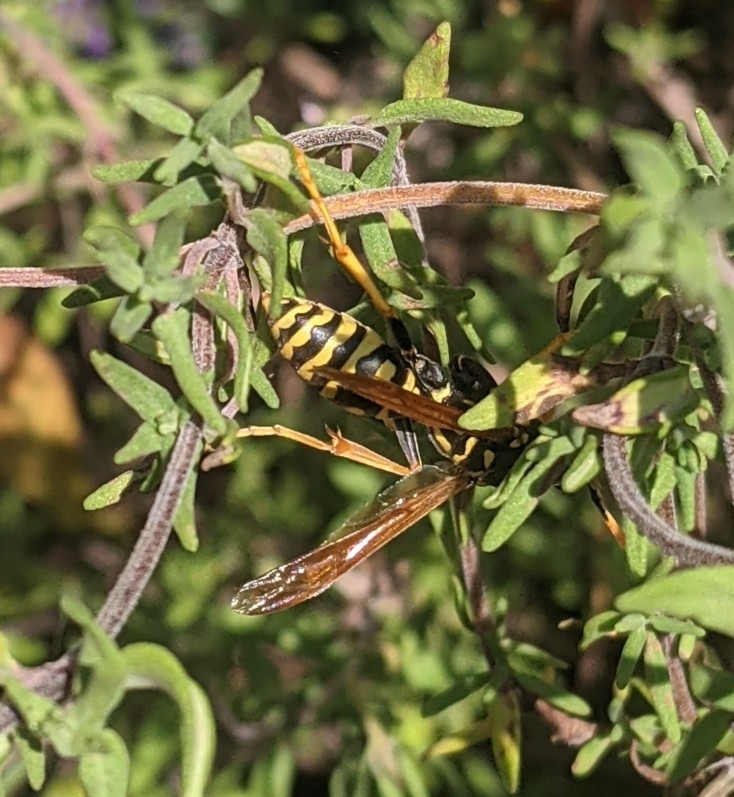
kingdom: Animalia
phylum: Arthropoda
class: Insecta
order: Hymenoptera
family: Eumenidae
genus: Polistes
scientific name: Polistes dominula
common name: Paper wasp
